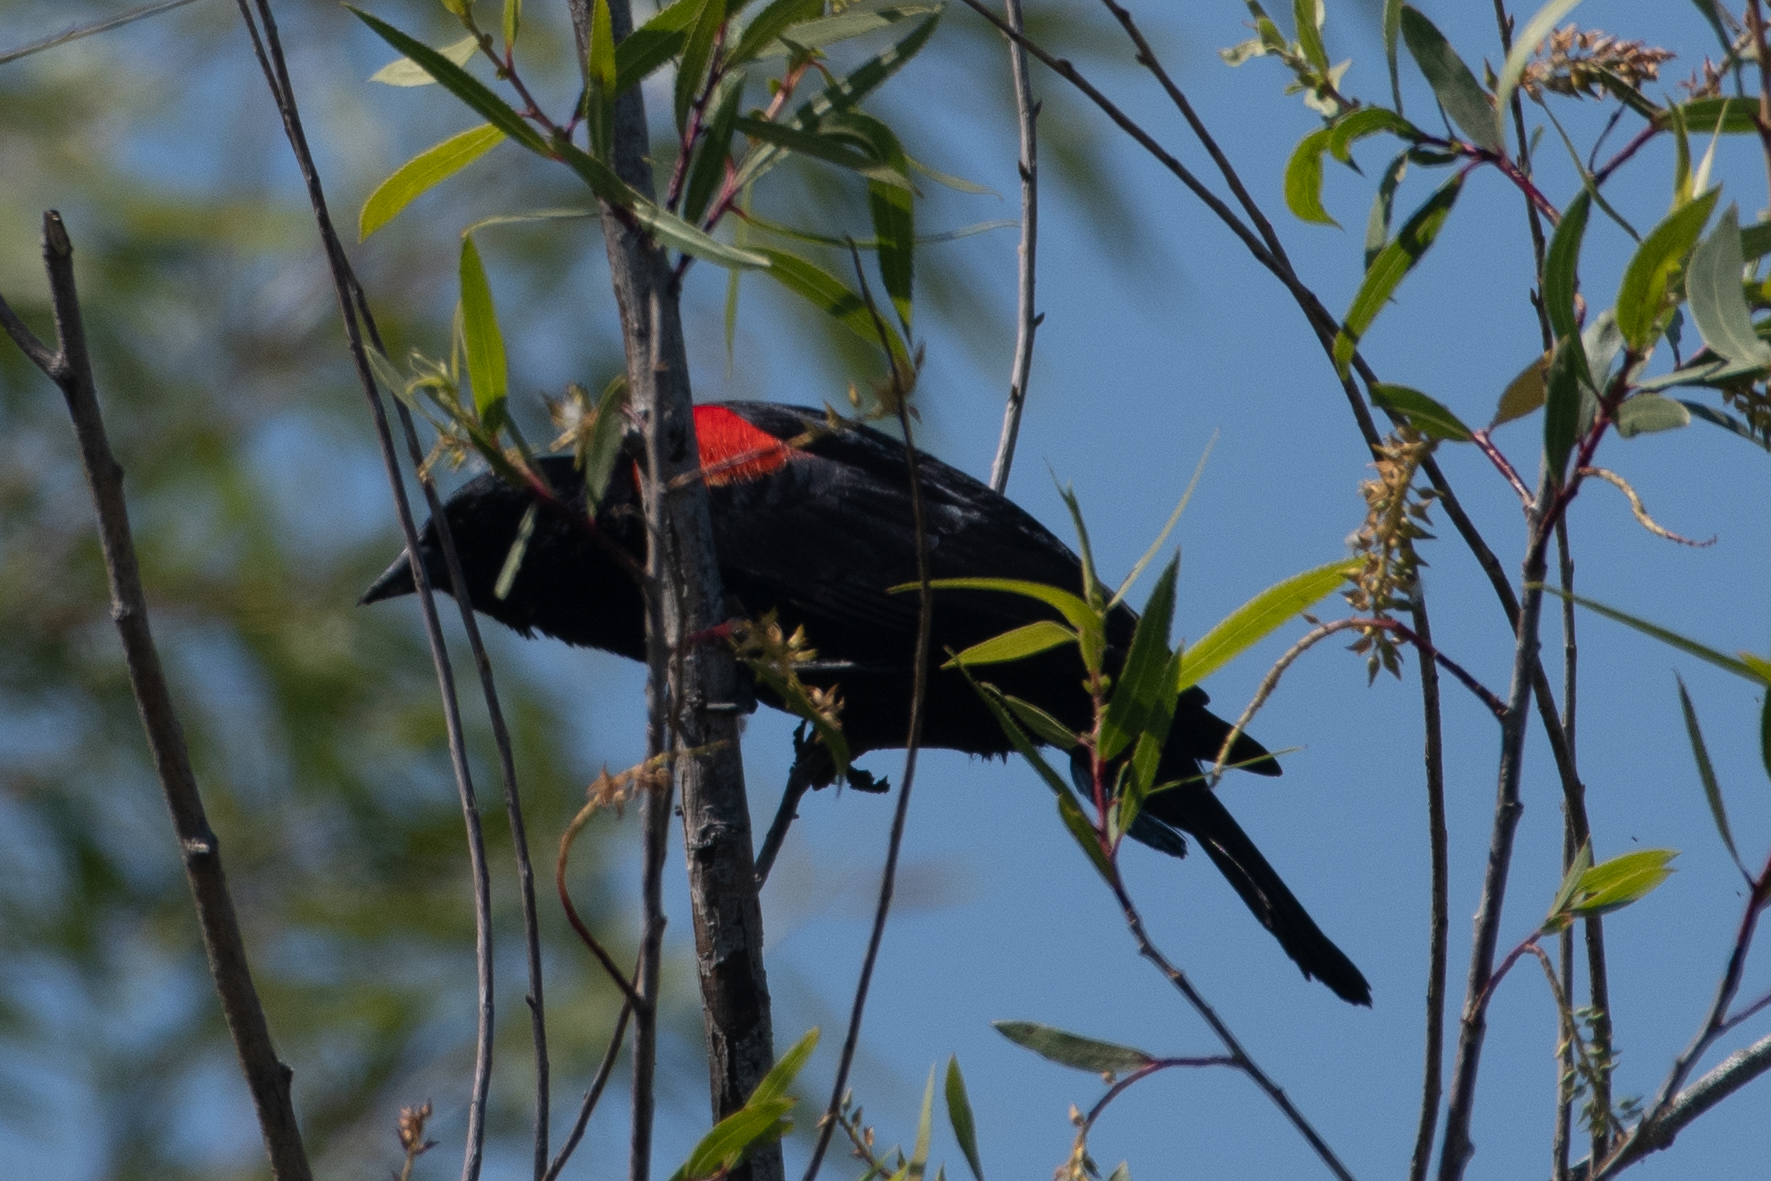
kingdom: Animalia
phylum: Chordata
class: Aves
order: Passeriformes
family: Icteridae
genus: Agelaius
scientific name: Agelaius phoeniceus
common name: Red-winged blackbird
